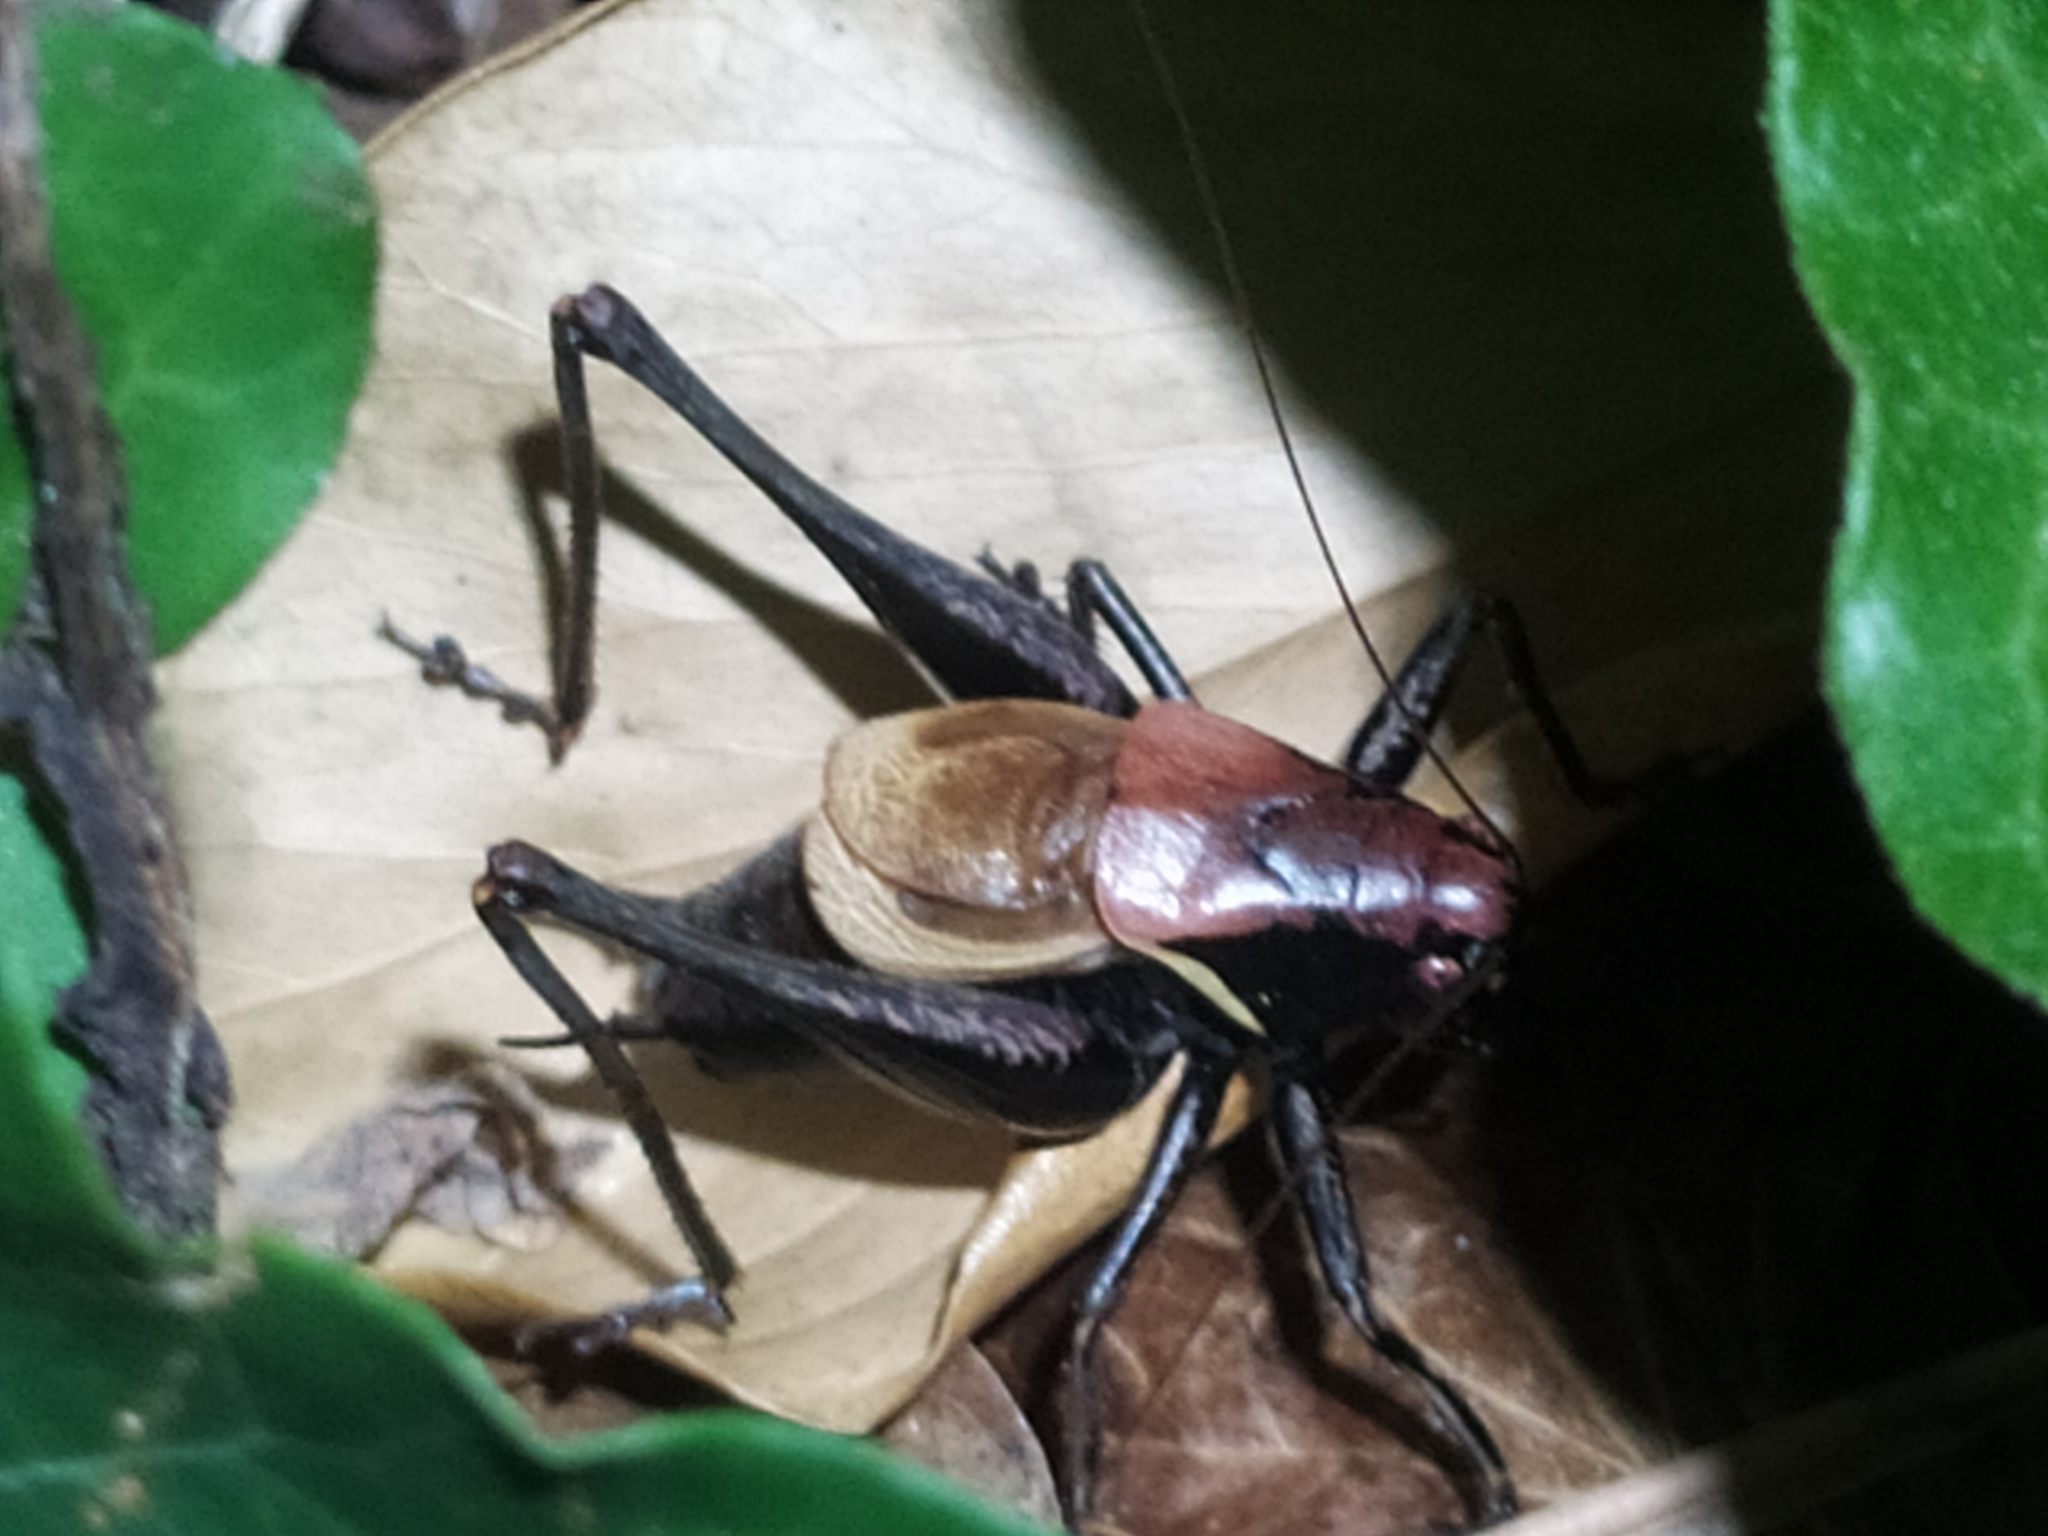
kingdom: Animalia
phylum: Arthropoda
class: Insecta
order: Orthoptera
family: Tettigoniidae
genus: Pholidoptera
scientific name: Pholidoptera aptera
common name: Alpine dark bush-cricket
